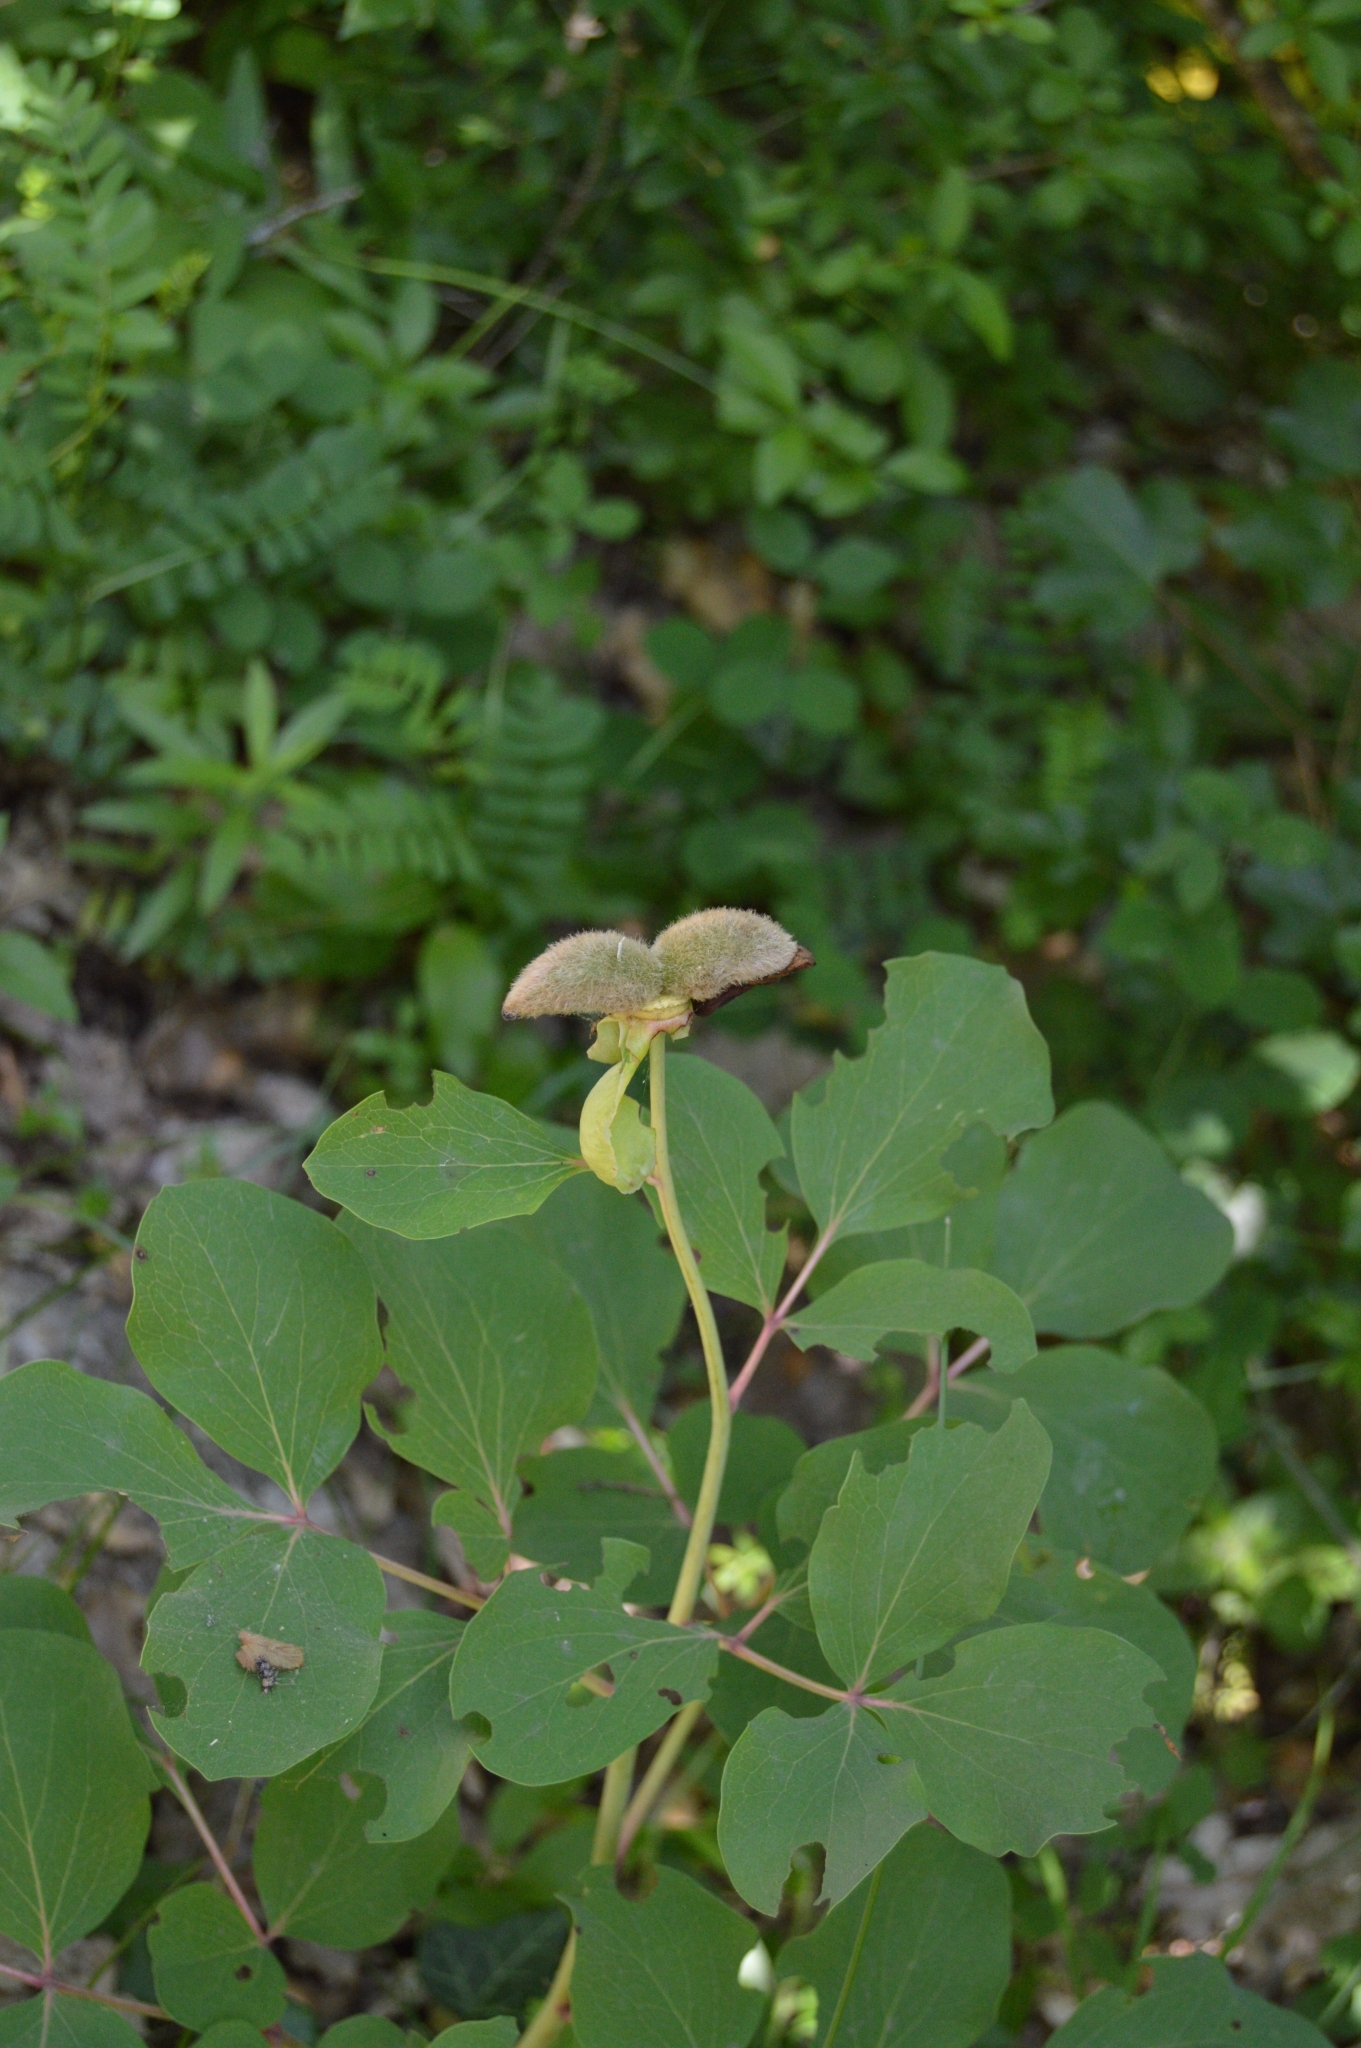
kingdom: Plantae
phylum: Tracheophyta
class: Magnoliopsida
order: Saxifragales
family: Paeoniaceae
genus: Paeonia
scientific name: Paeonia daurica
